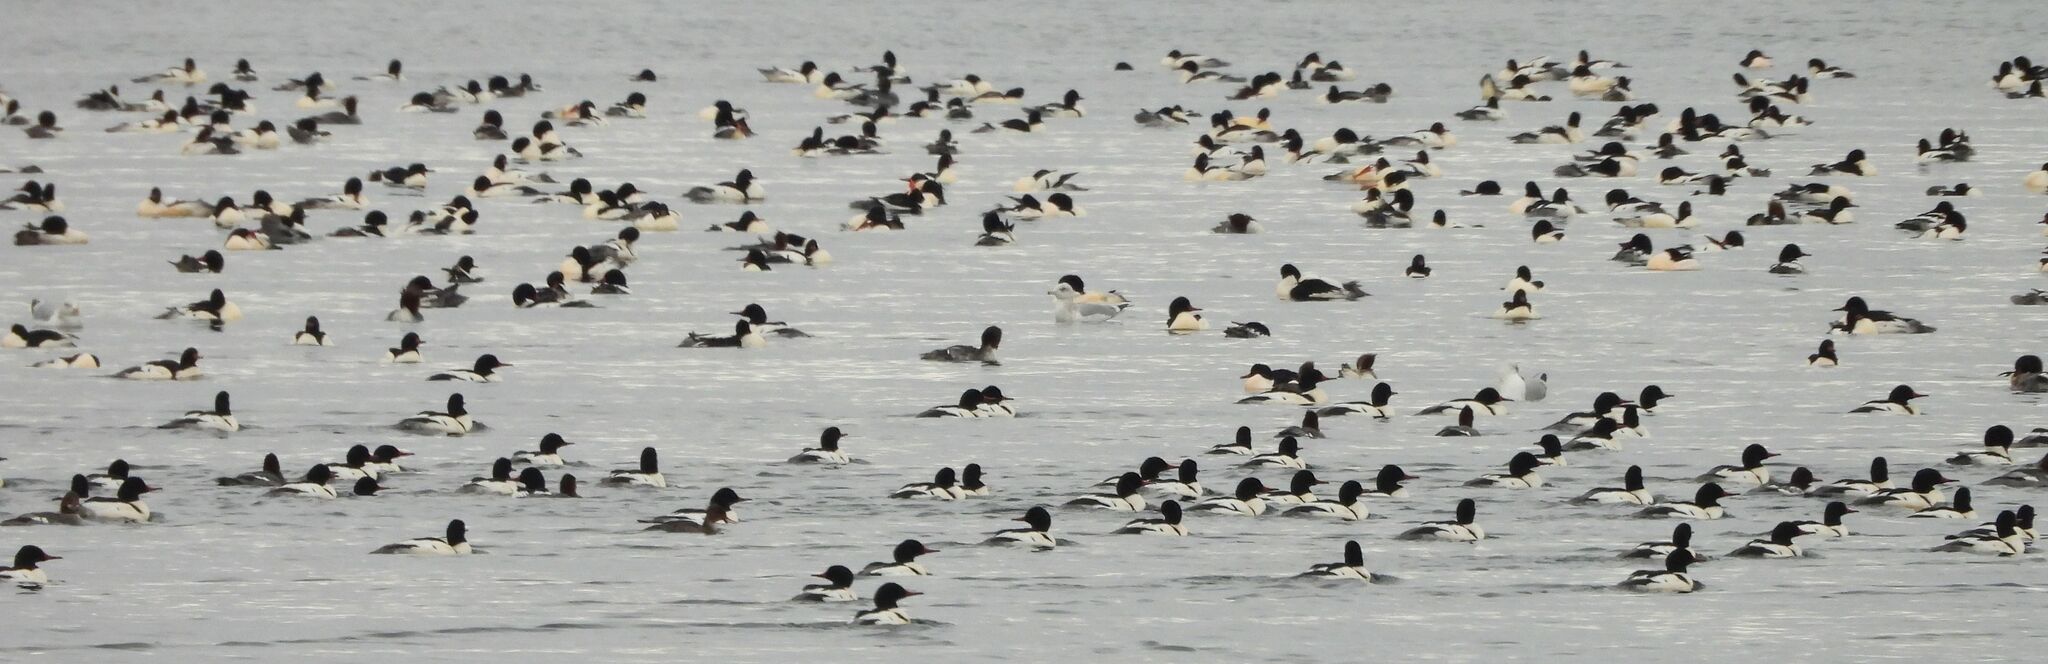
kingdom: Animalia
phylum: Chordata
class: Aves
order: Anseriformes
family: Anatidae
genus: Mergus
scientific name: Mergus merganser
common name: Common merganser
